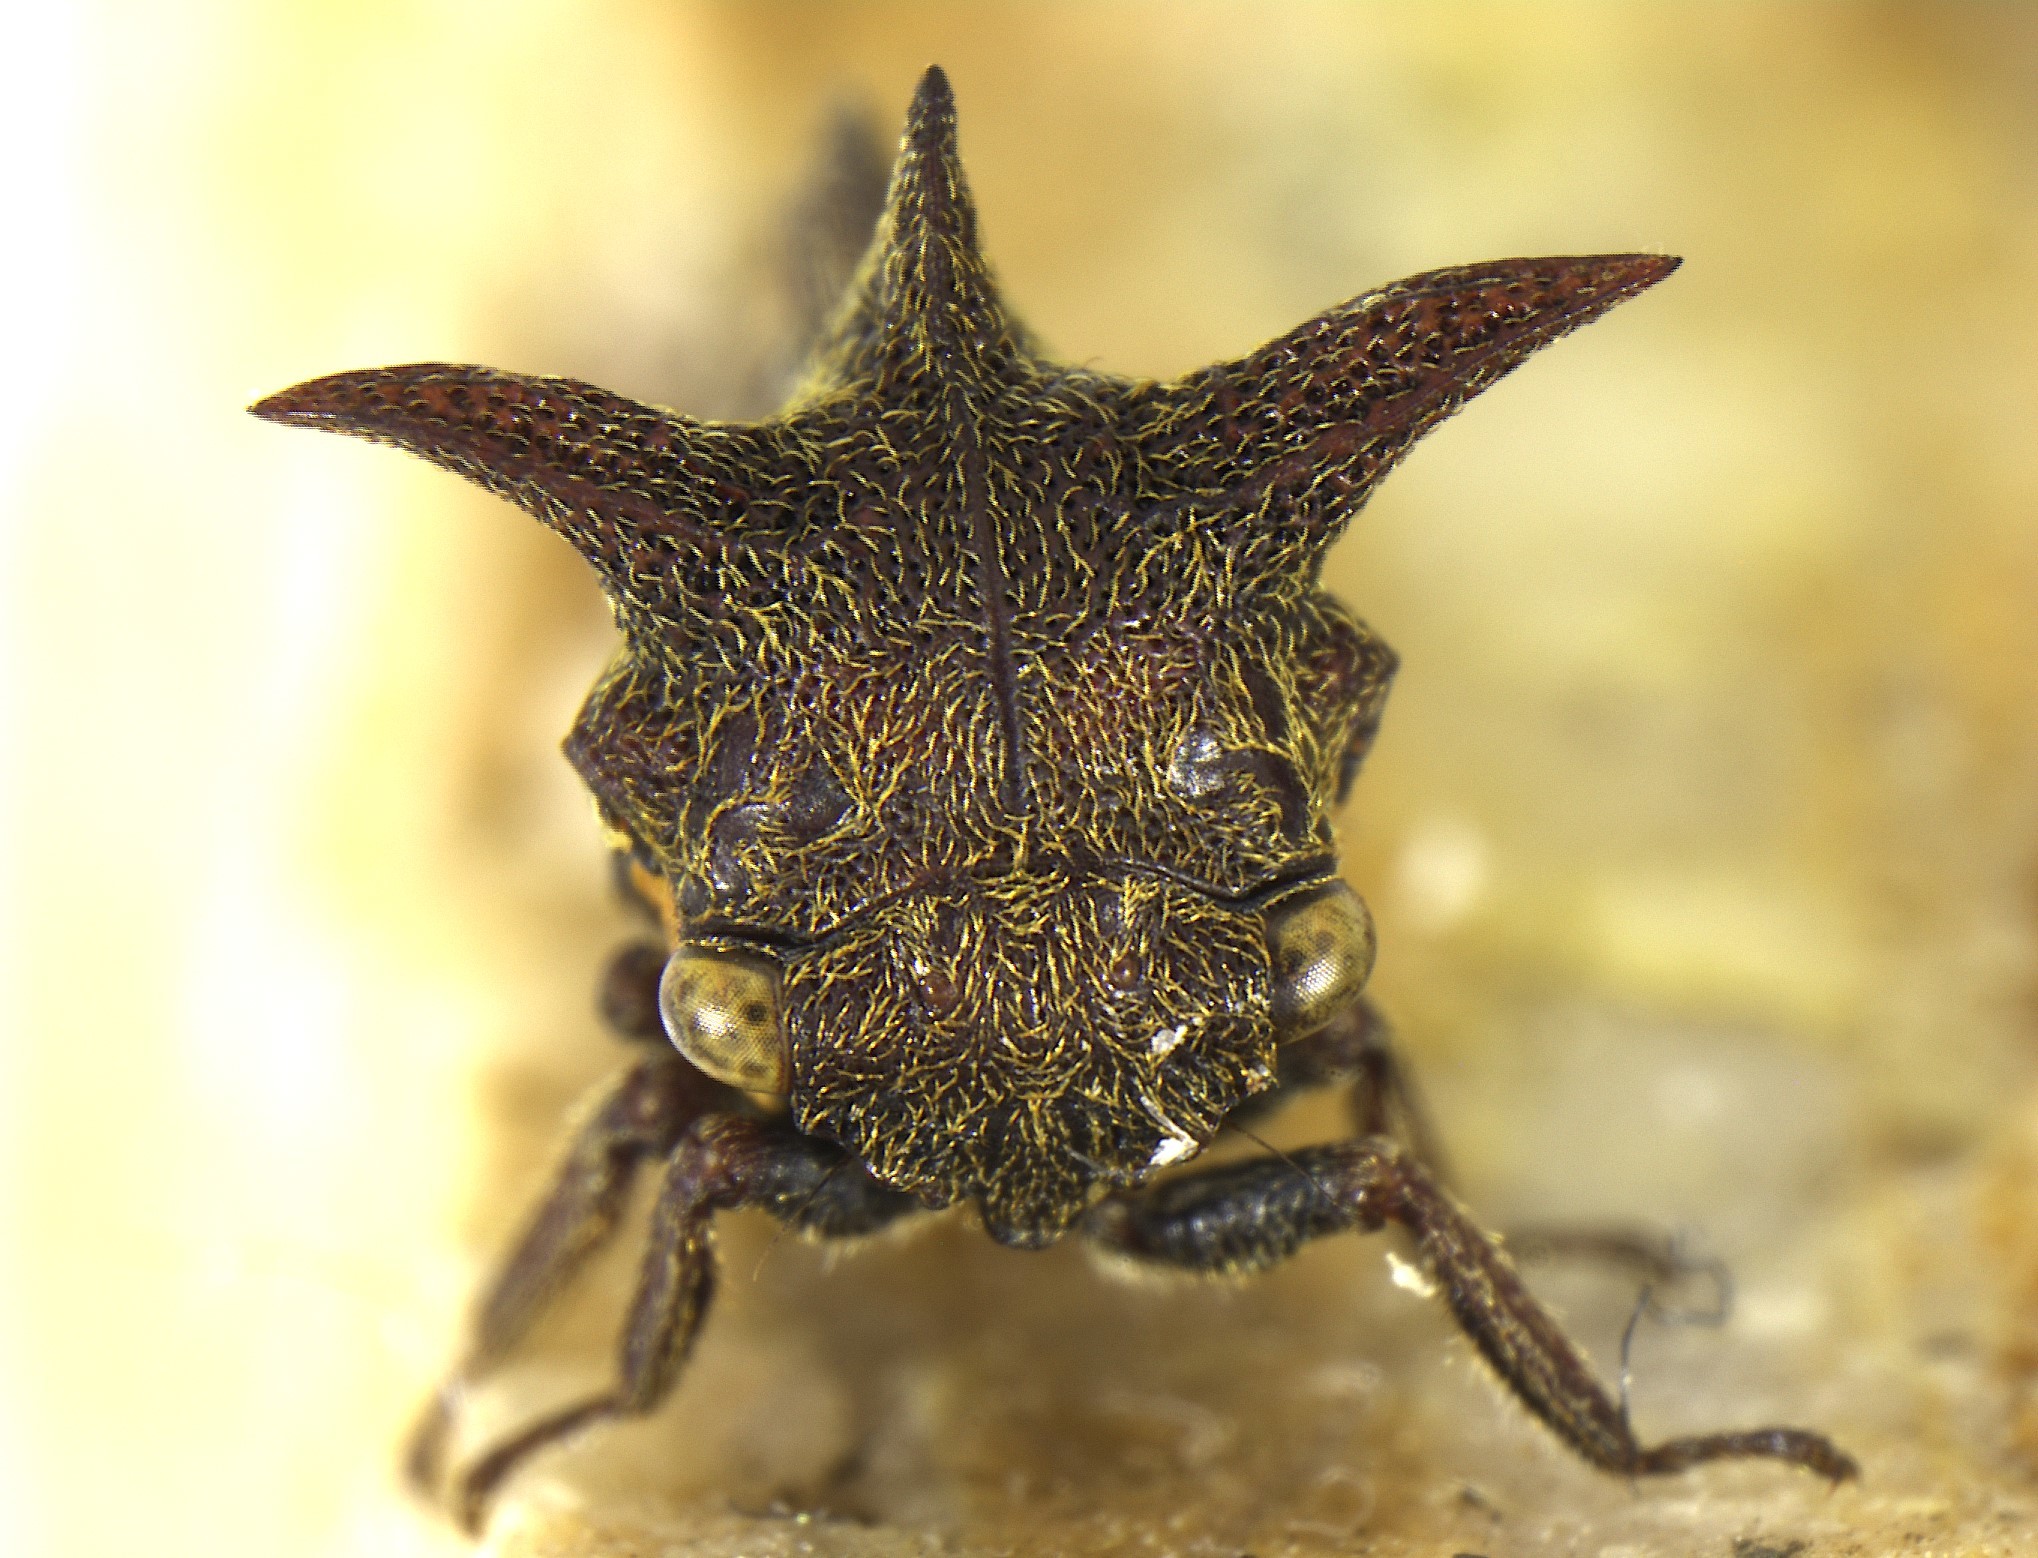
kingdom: Animalia
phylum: Arthropoda
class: Insecta
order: Hemiptera
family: Membracidae
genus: Acanthuchus
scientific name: Acanthuchus trispinifer
